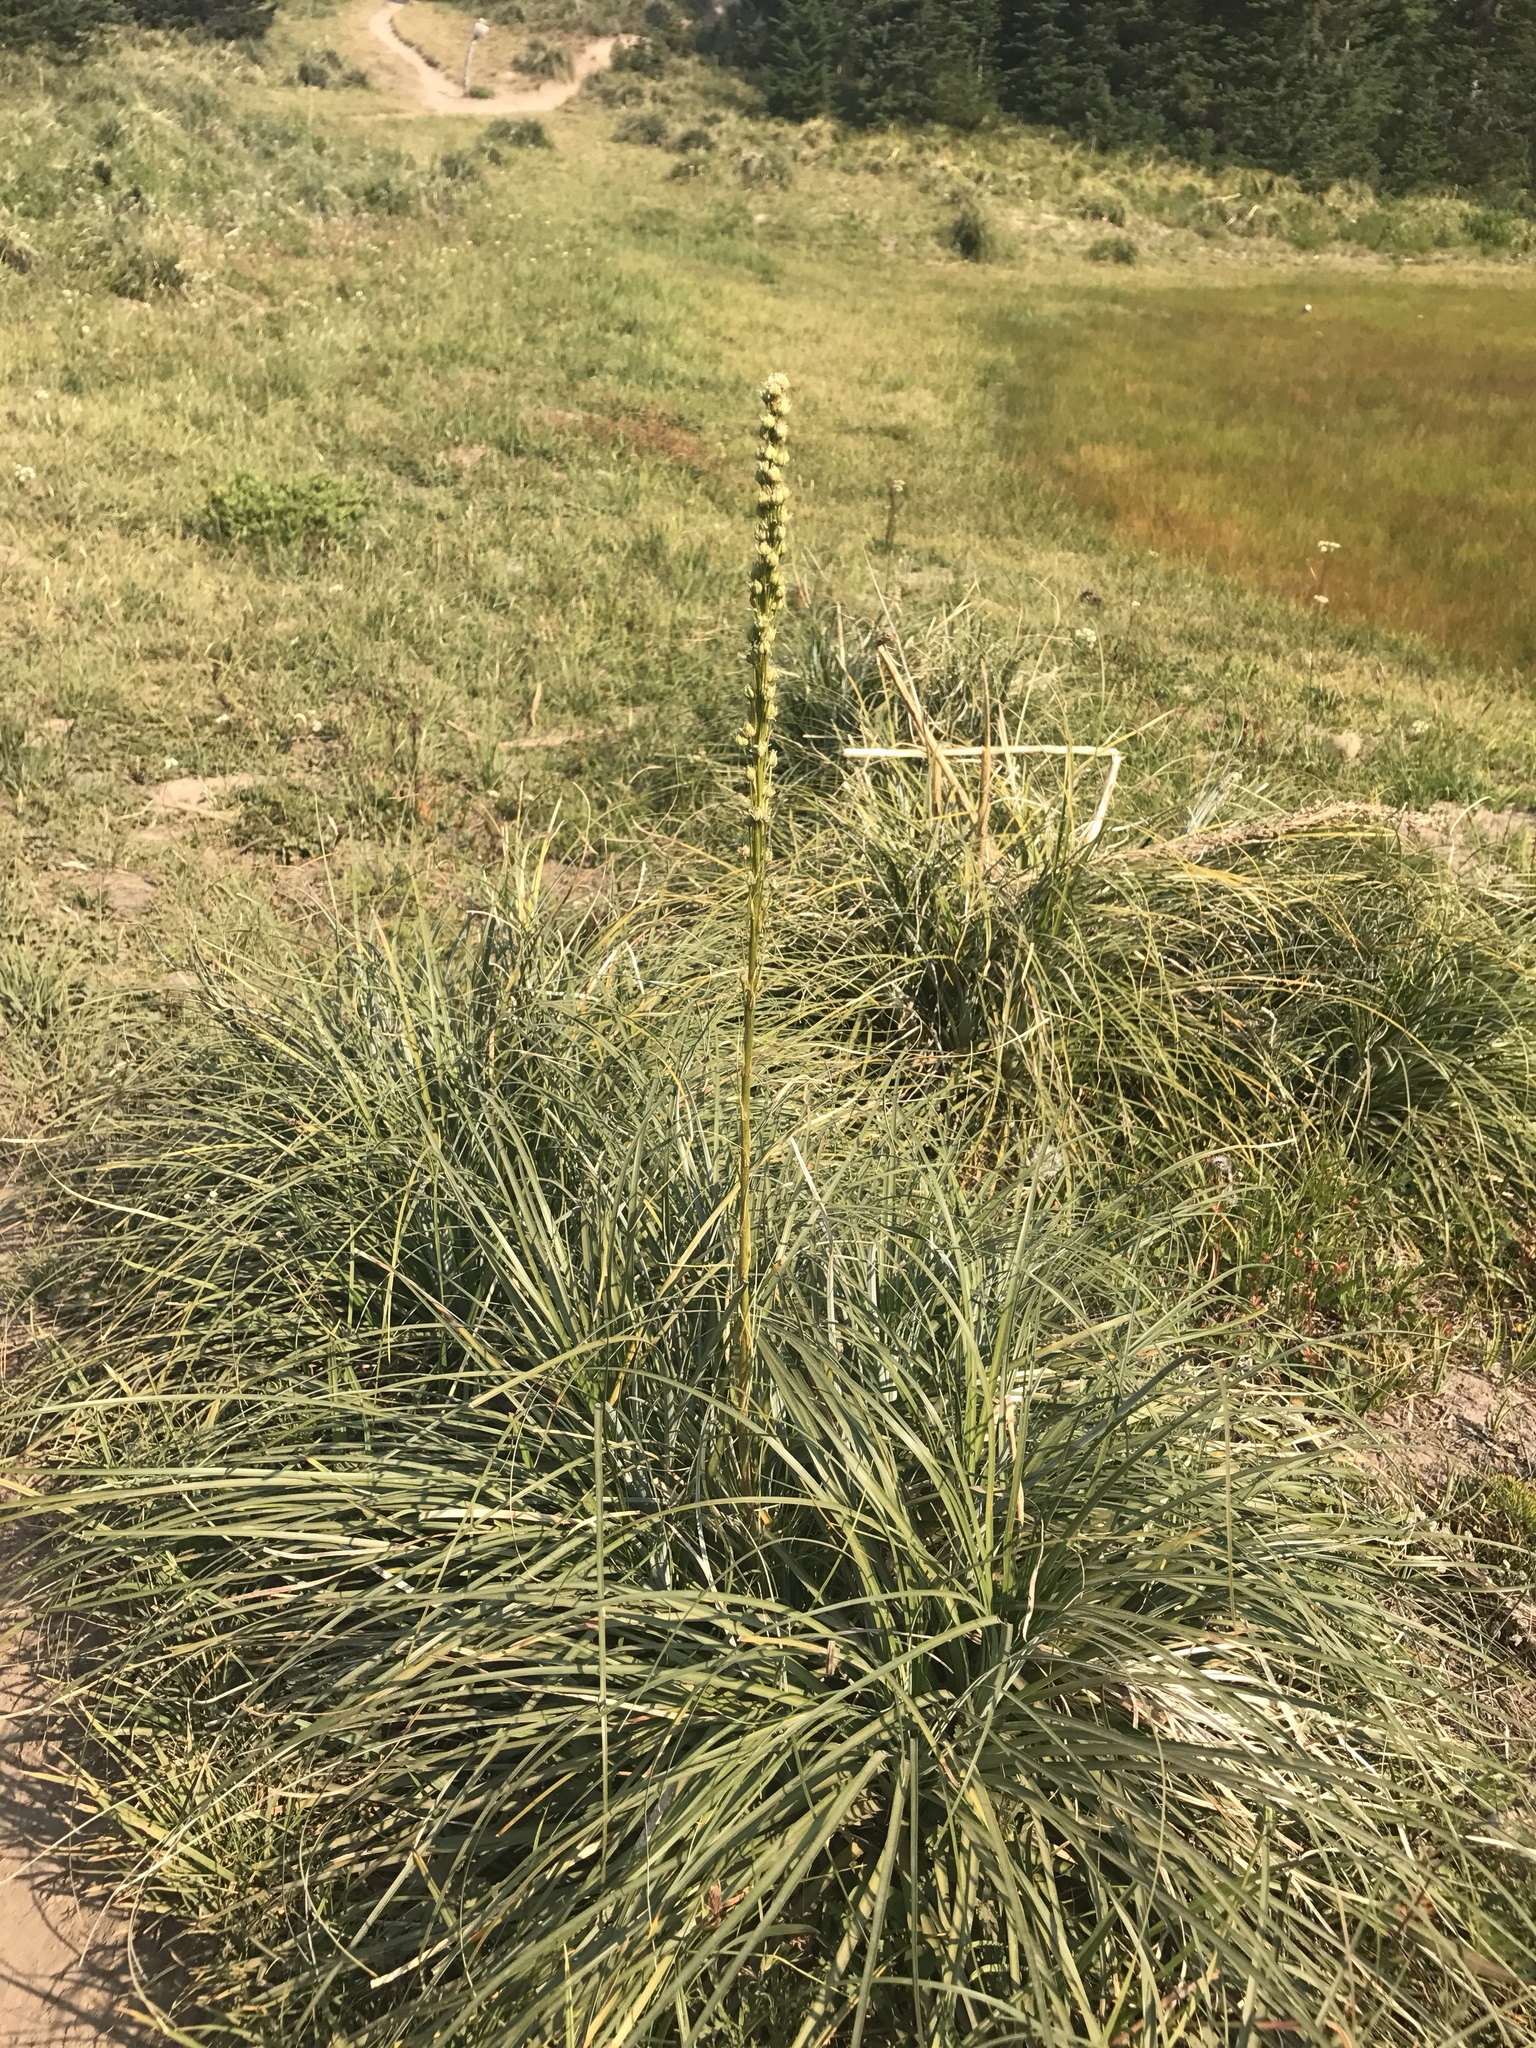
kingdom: Plantae
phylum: Tracheophyta
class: Liliopsida
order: Liliales
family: Melanthiaceae
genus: Xerophyllum
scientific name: Xerophyllum tenax
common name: Bear-grass
